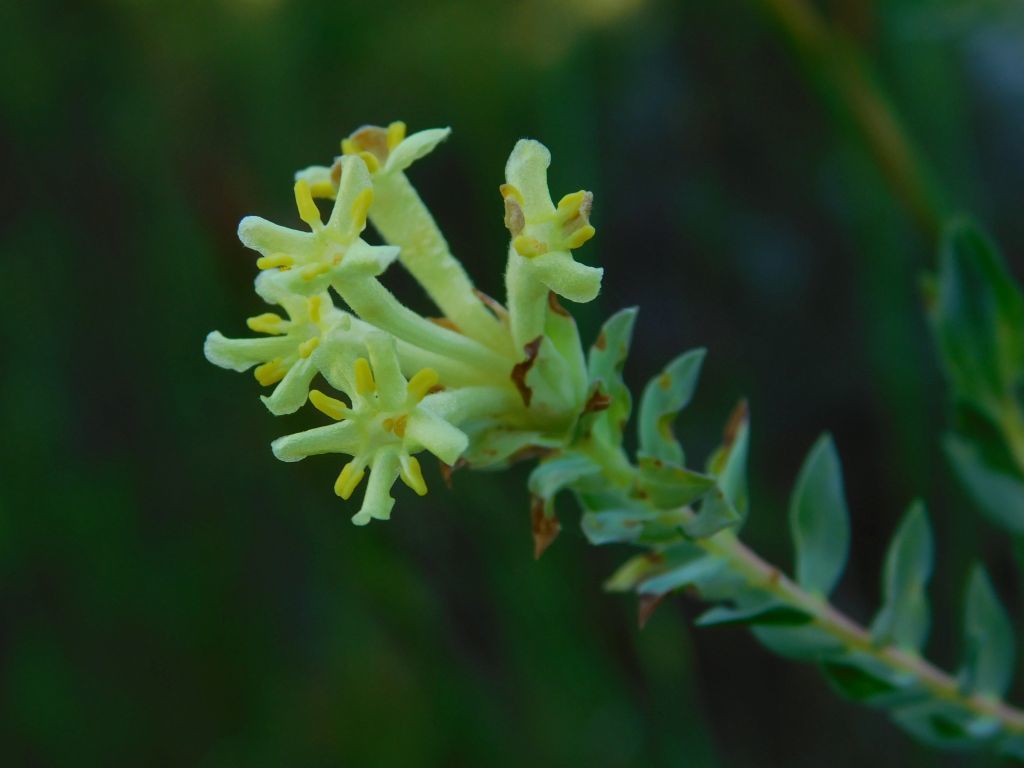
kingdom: Plantae
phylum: Tracheophyta
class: Magnoliopsida
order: Malvales
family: Thymelaeaceae
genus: Gnidia
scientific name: Gnidia oppositifolia
